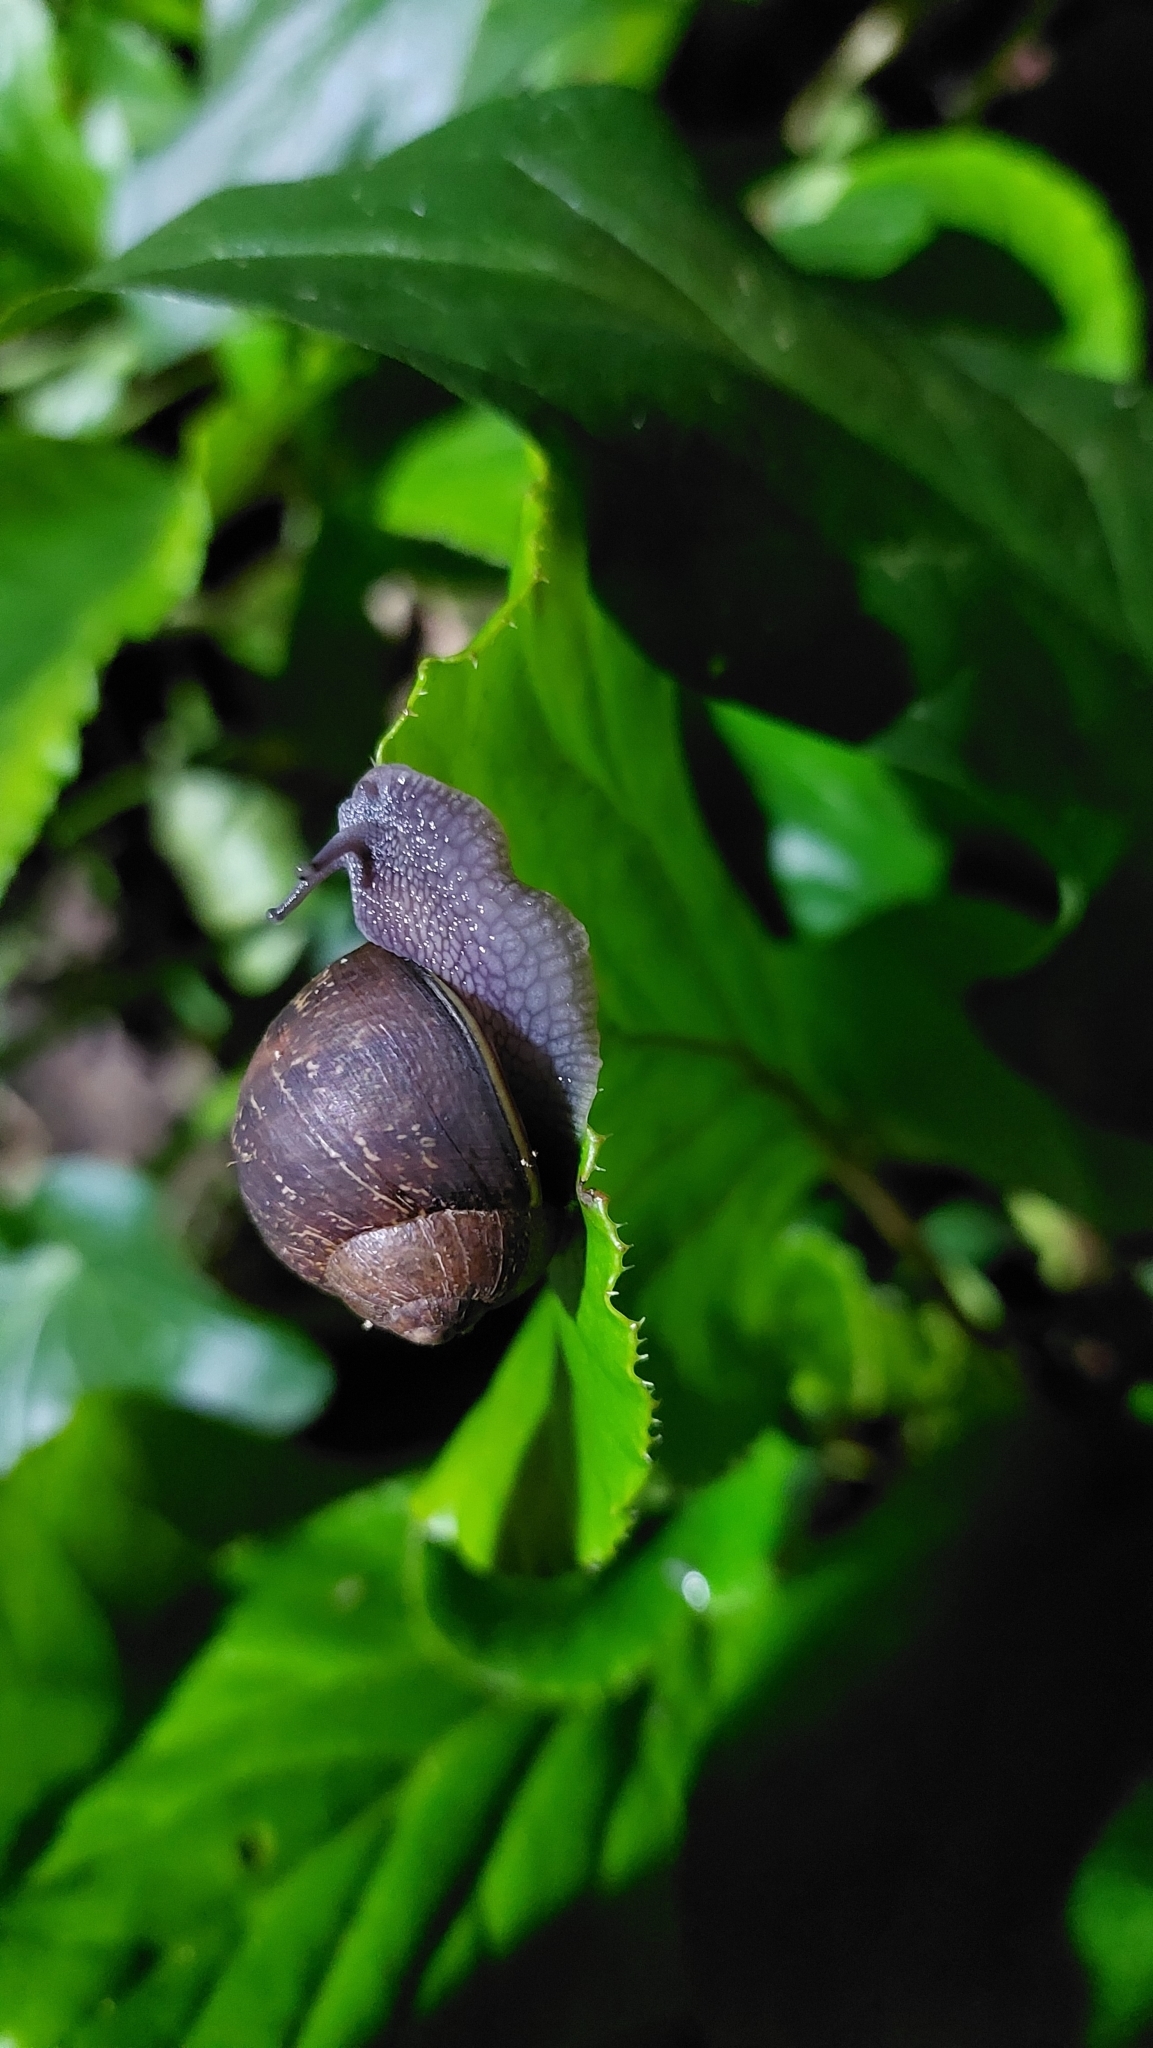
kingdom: Animalia
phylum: Mollusca
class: Gastropoda
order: Stylommatophora
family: Helicidae
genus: Cornu
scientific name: Cornu aspersum
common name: Brown garden snail
